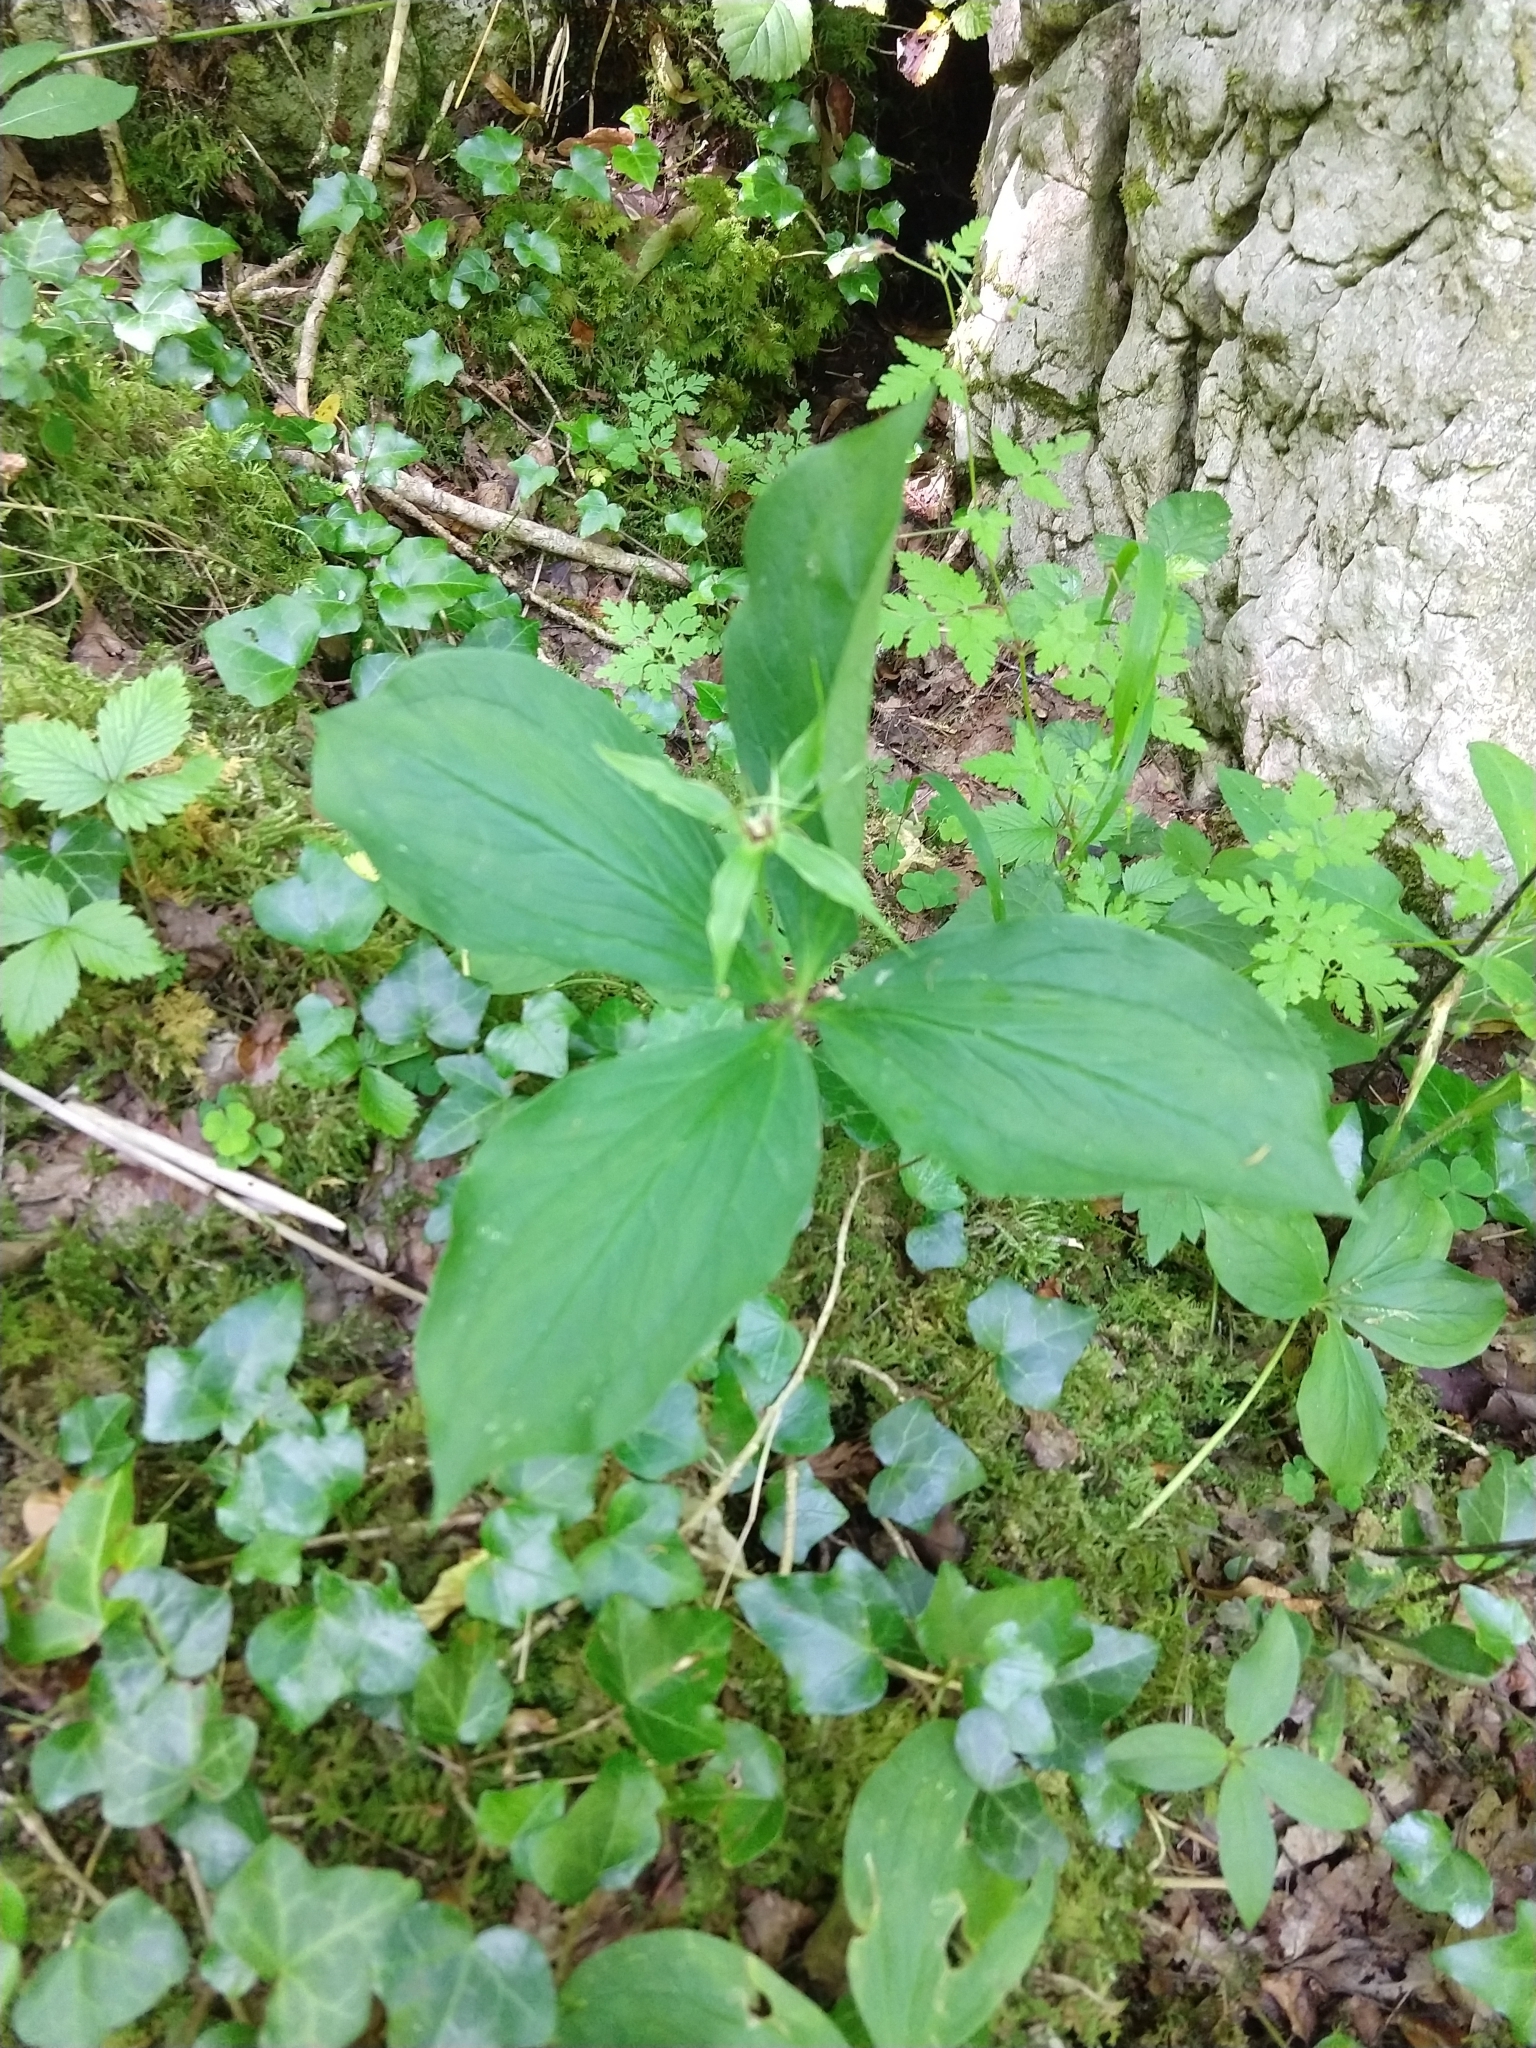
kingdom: Plantae
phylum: Tracheophyta
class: Liliopsida
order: Liliales
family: Melanthiaceae
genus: Paris
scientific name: Paris quadrifolia
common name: Herb-paris
